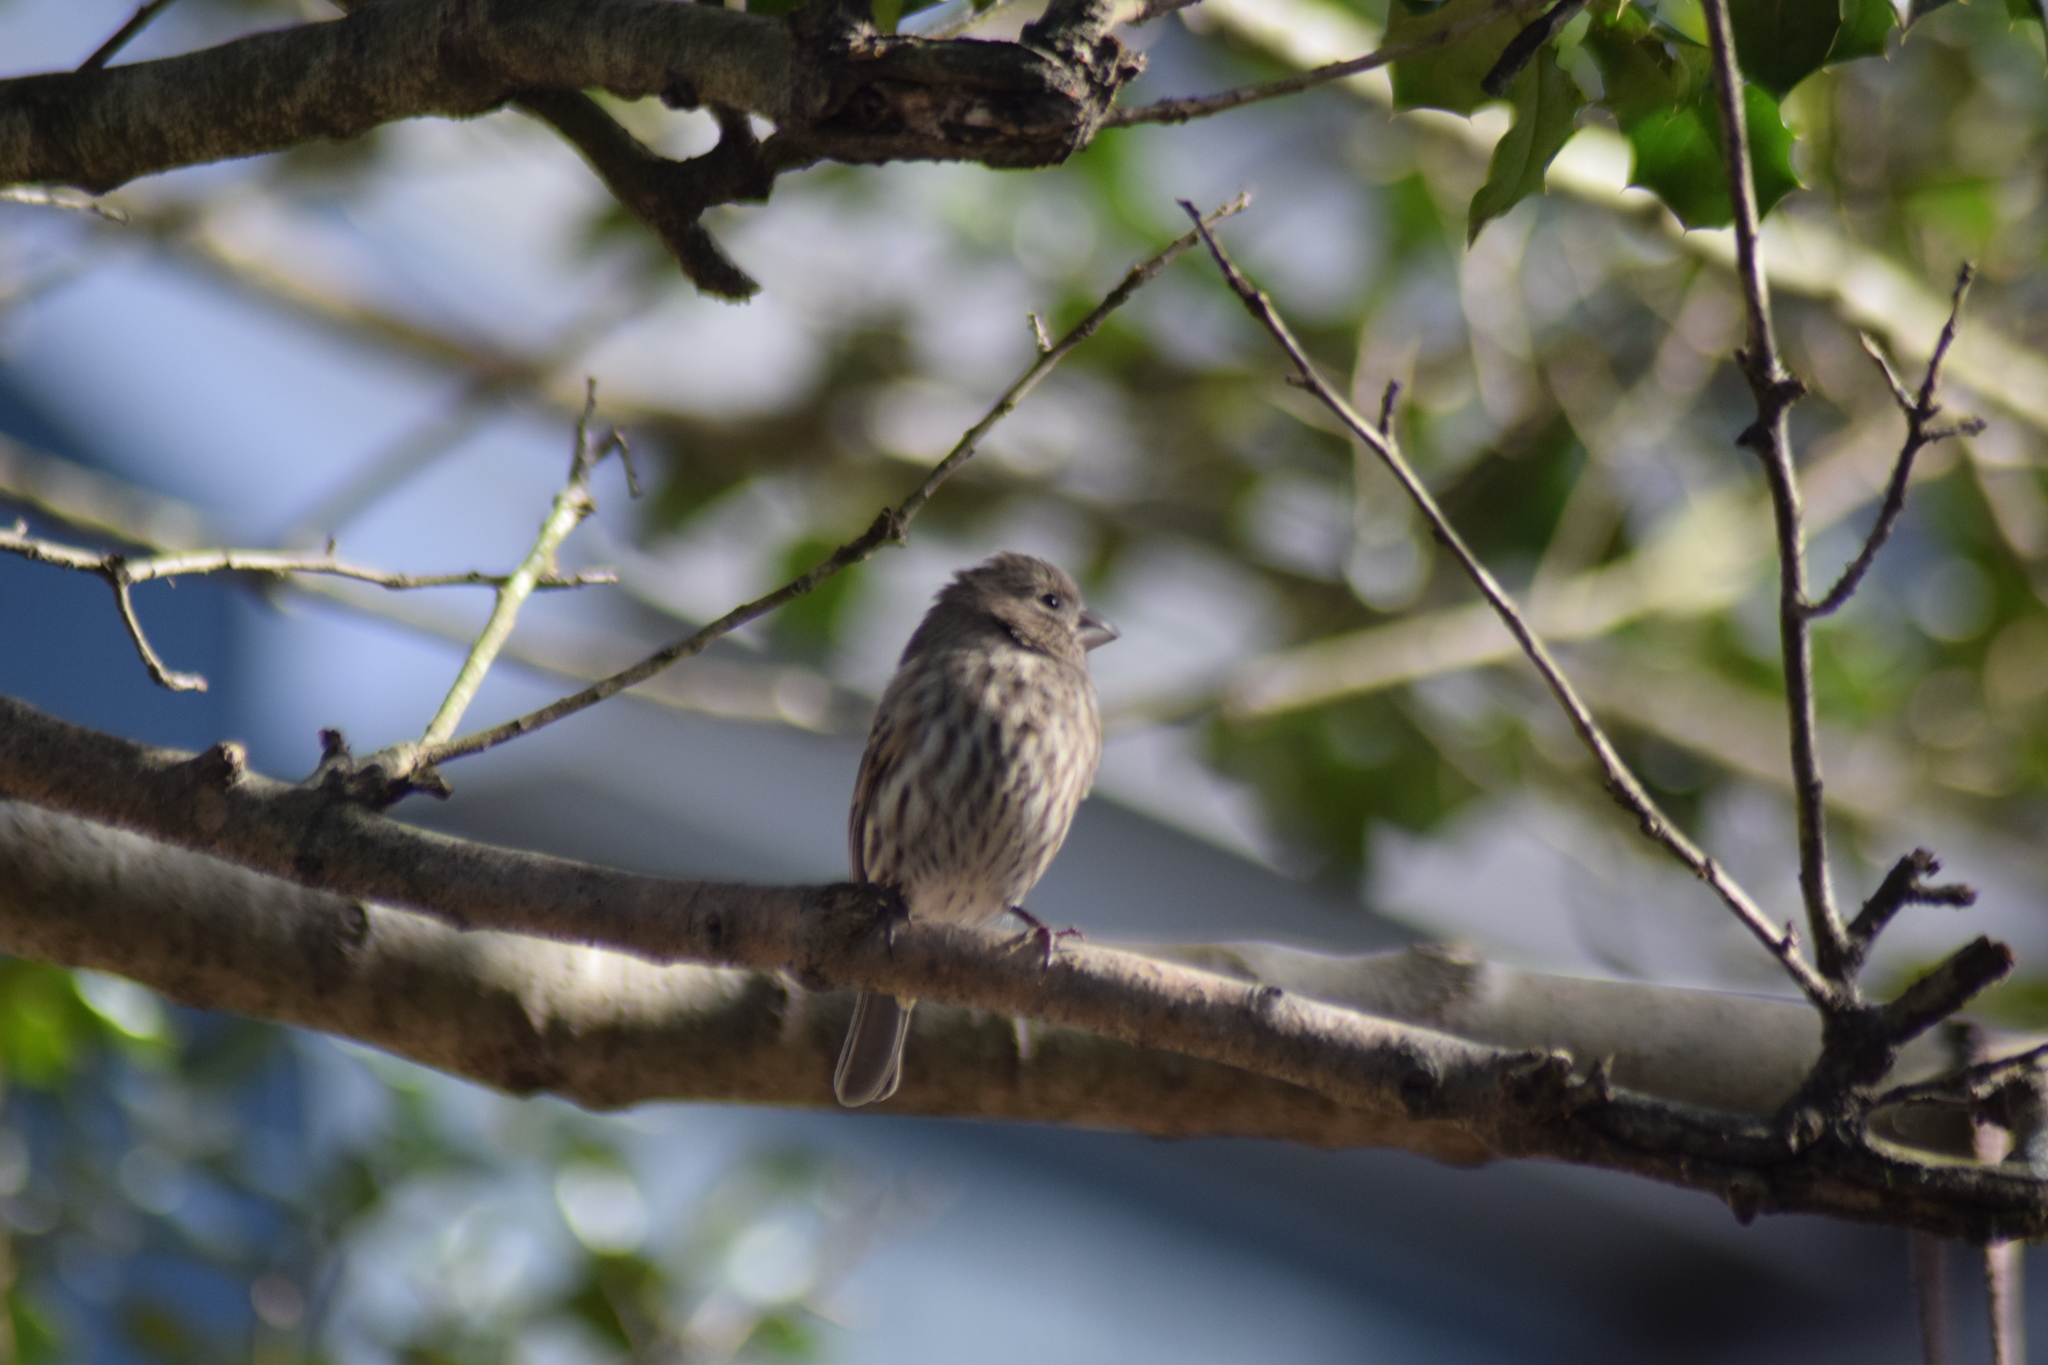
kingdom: Animalia
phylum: Chordata
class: Aves
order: Passeriformes
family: Fringillidae
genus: Haemorhous
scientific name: Haemorhous mexicanus
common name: House finch
